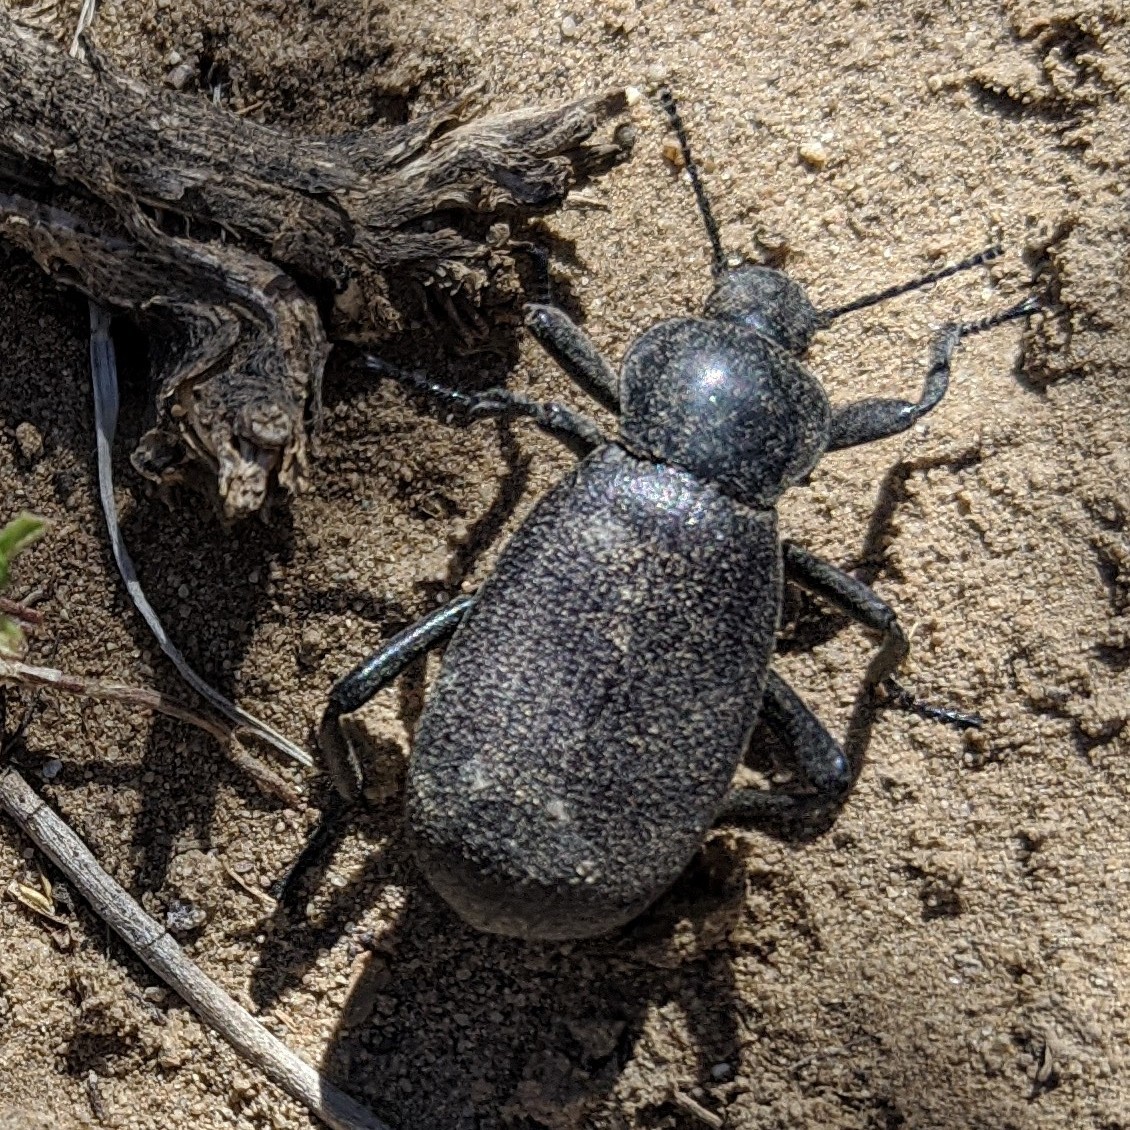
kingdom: Animalia
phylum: Arthropoda
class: Insecta
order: Coleoptera
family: Tenebrionidae
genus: Eleodes
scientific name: Eleodes obscura
